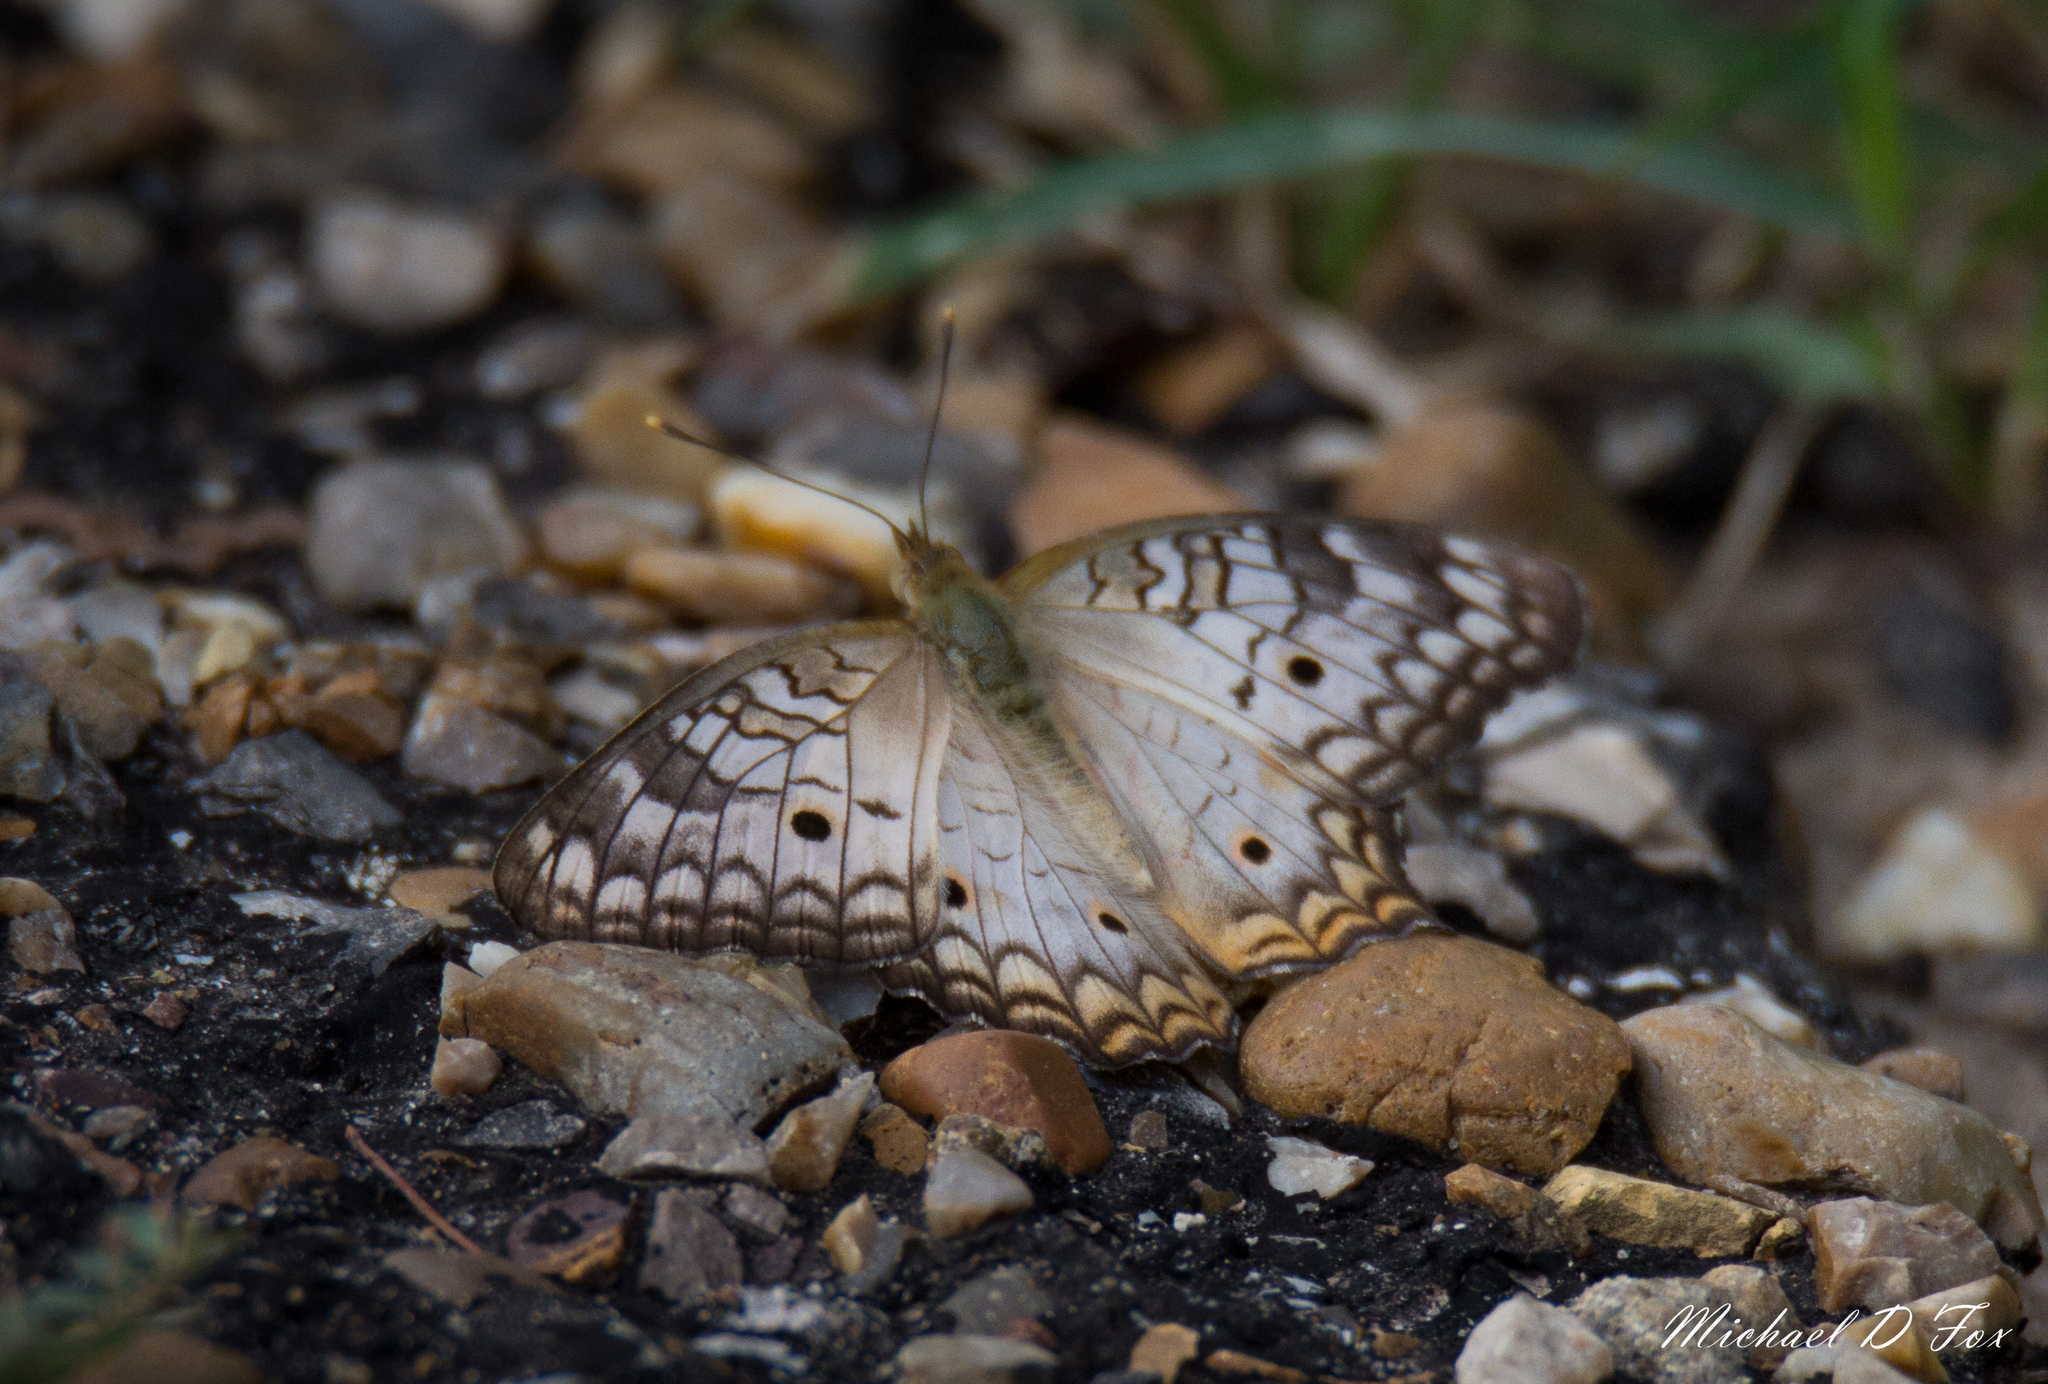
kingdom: Animalia
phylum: Arthropoda
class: Insecta
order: Lepidoptera
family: Nymphalidae
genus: Anartia
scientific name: Anartia jatrophae
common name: White peacock
